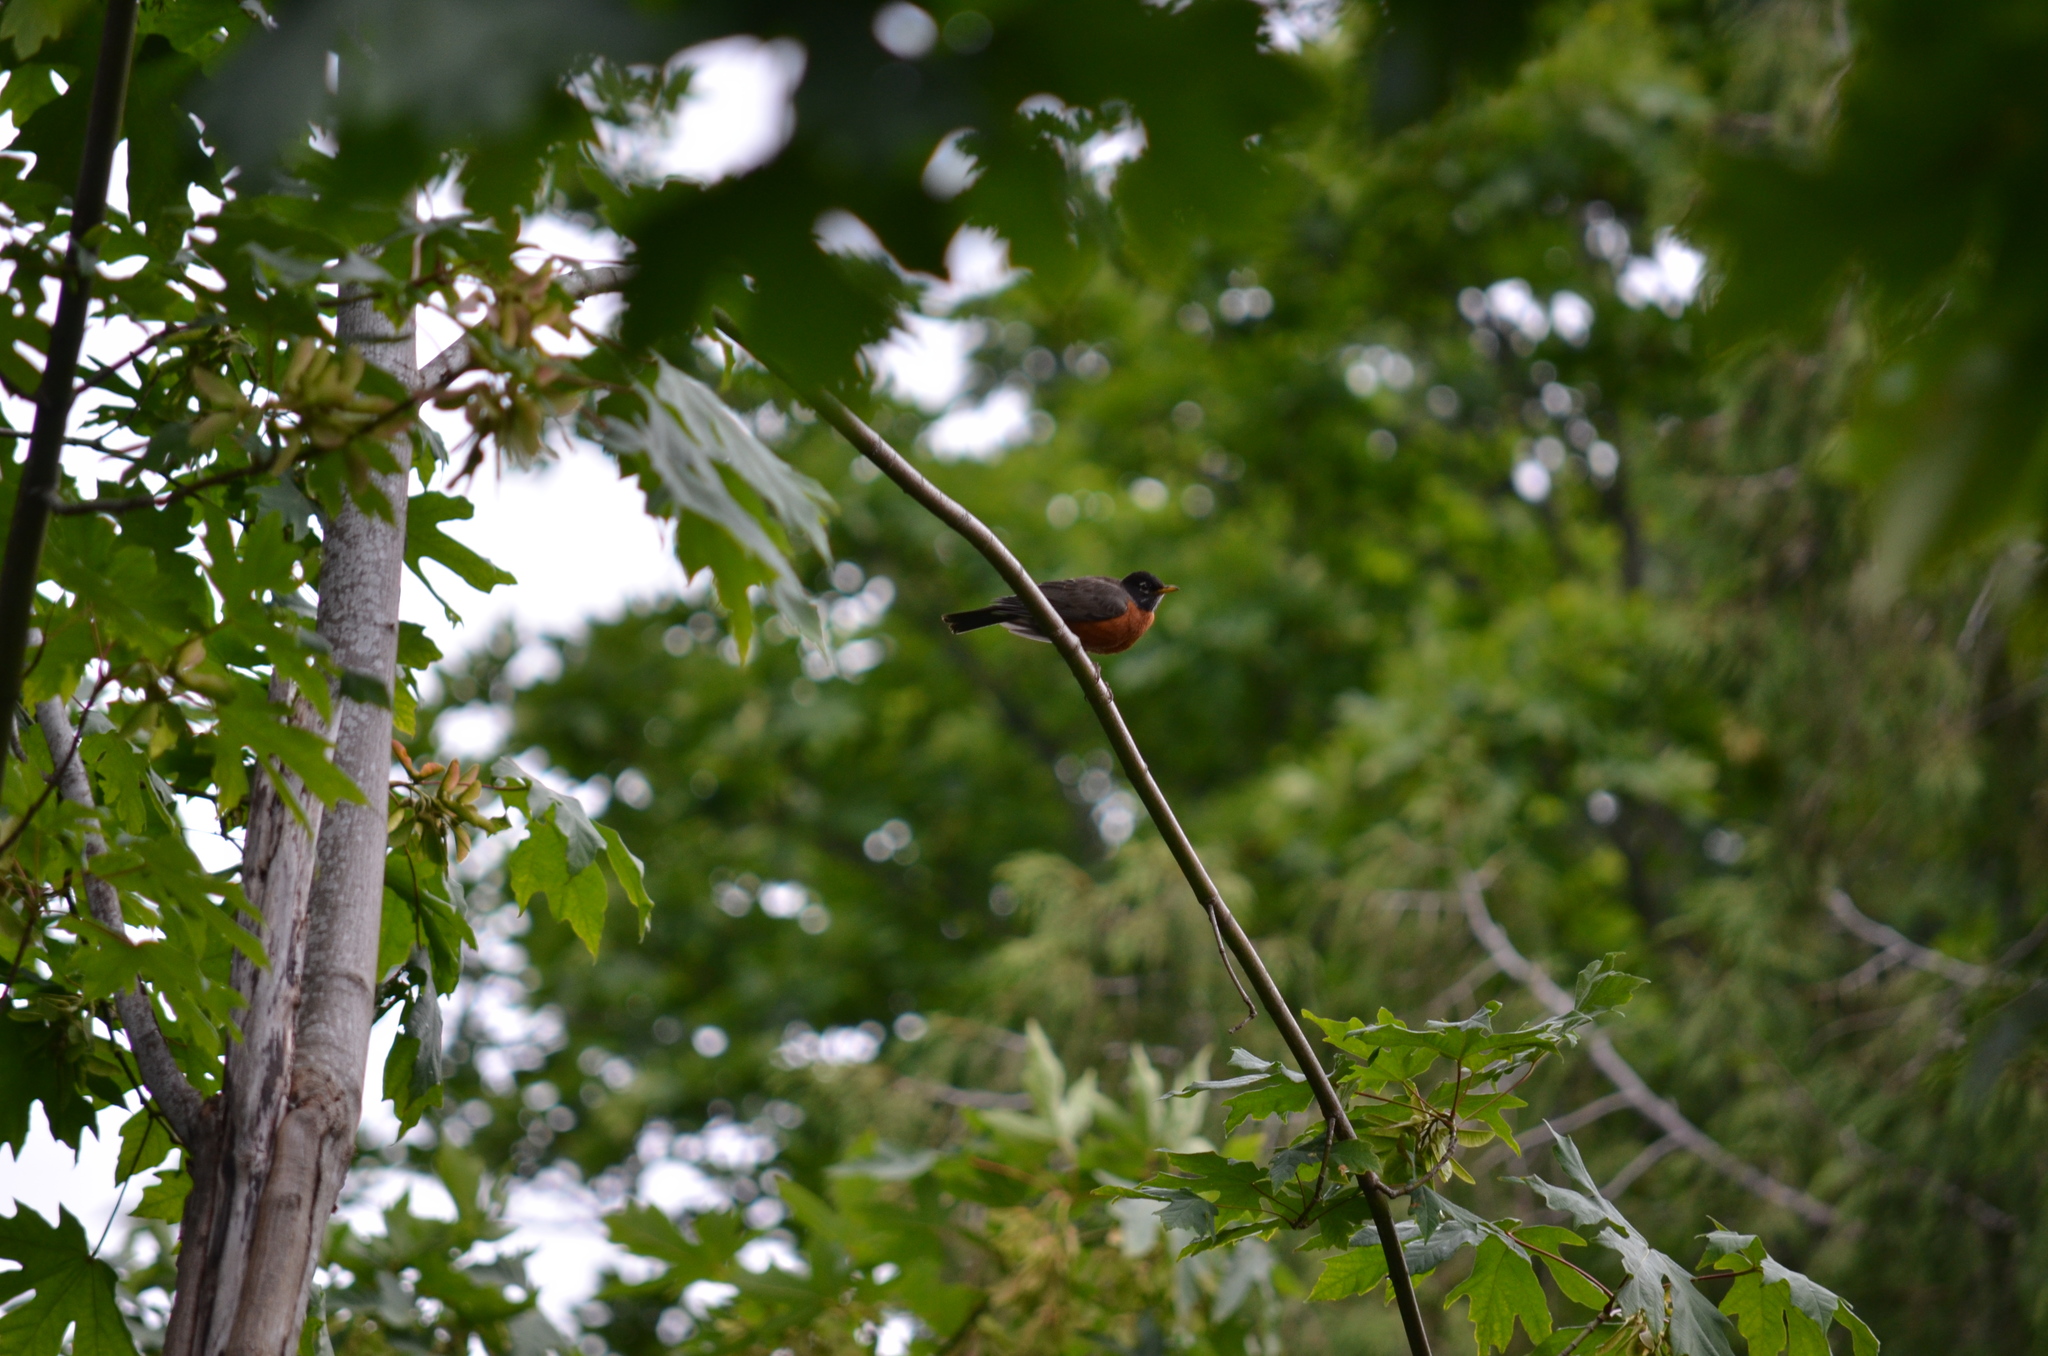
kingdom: Animalia
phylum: Chordata
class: Aves
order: Passeriformes
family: Turdidae
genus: Turdus
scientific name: Turdus migratorius
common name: American robin
